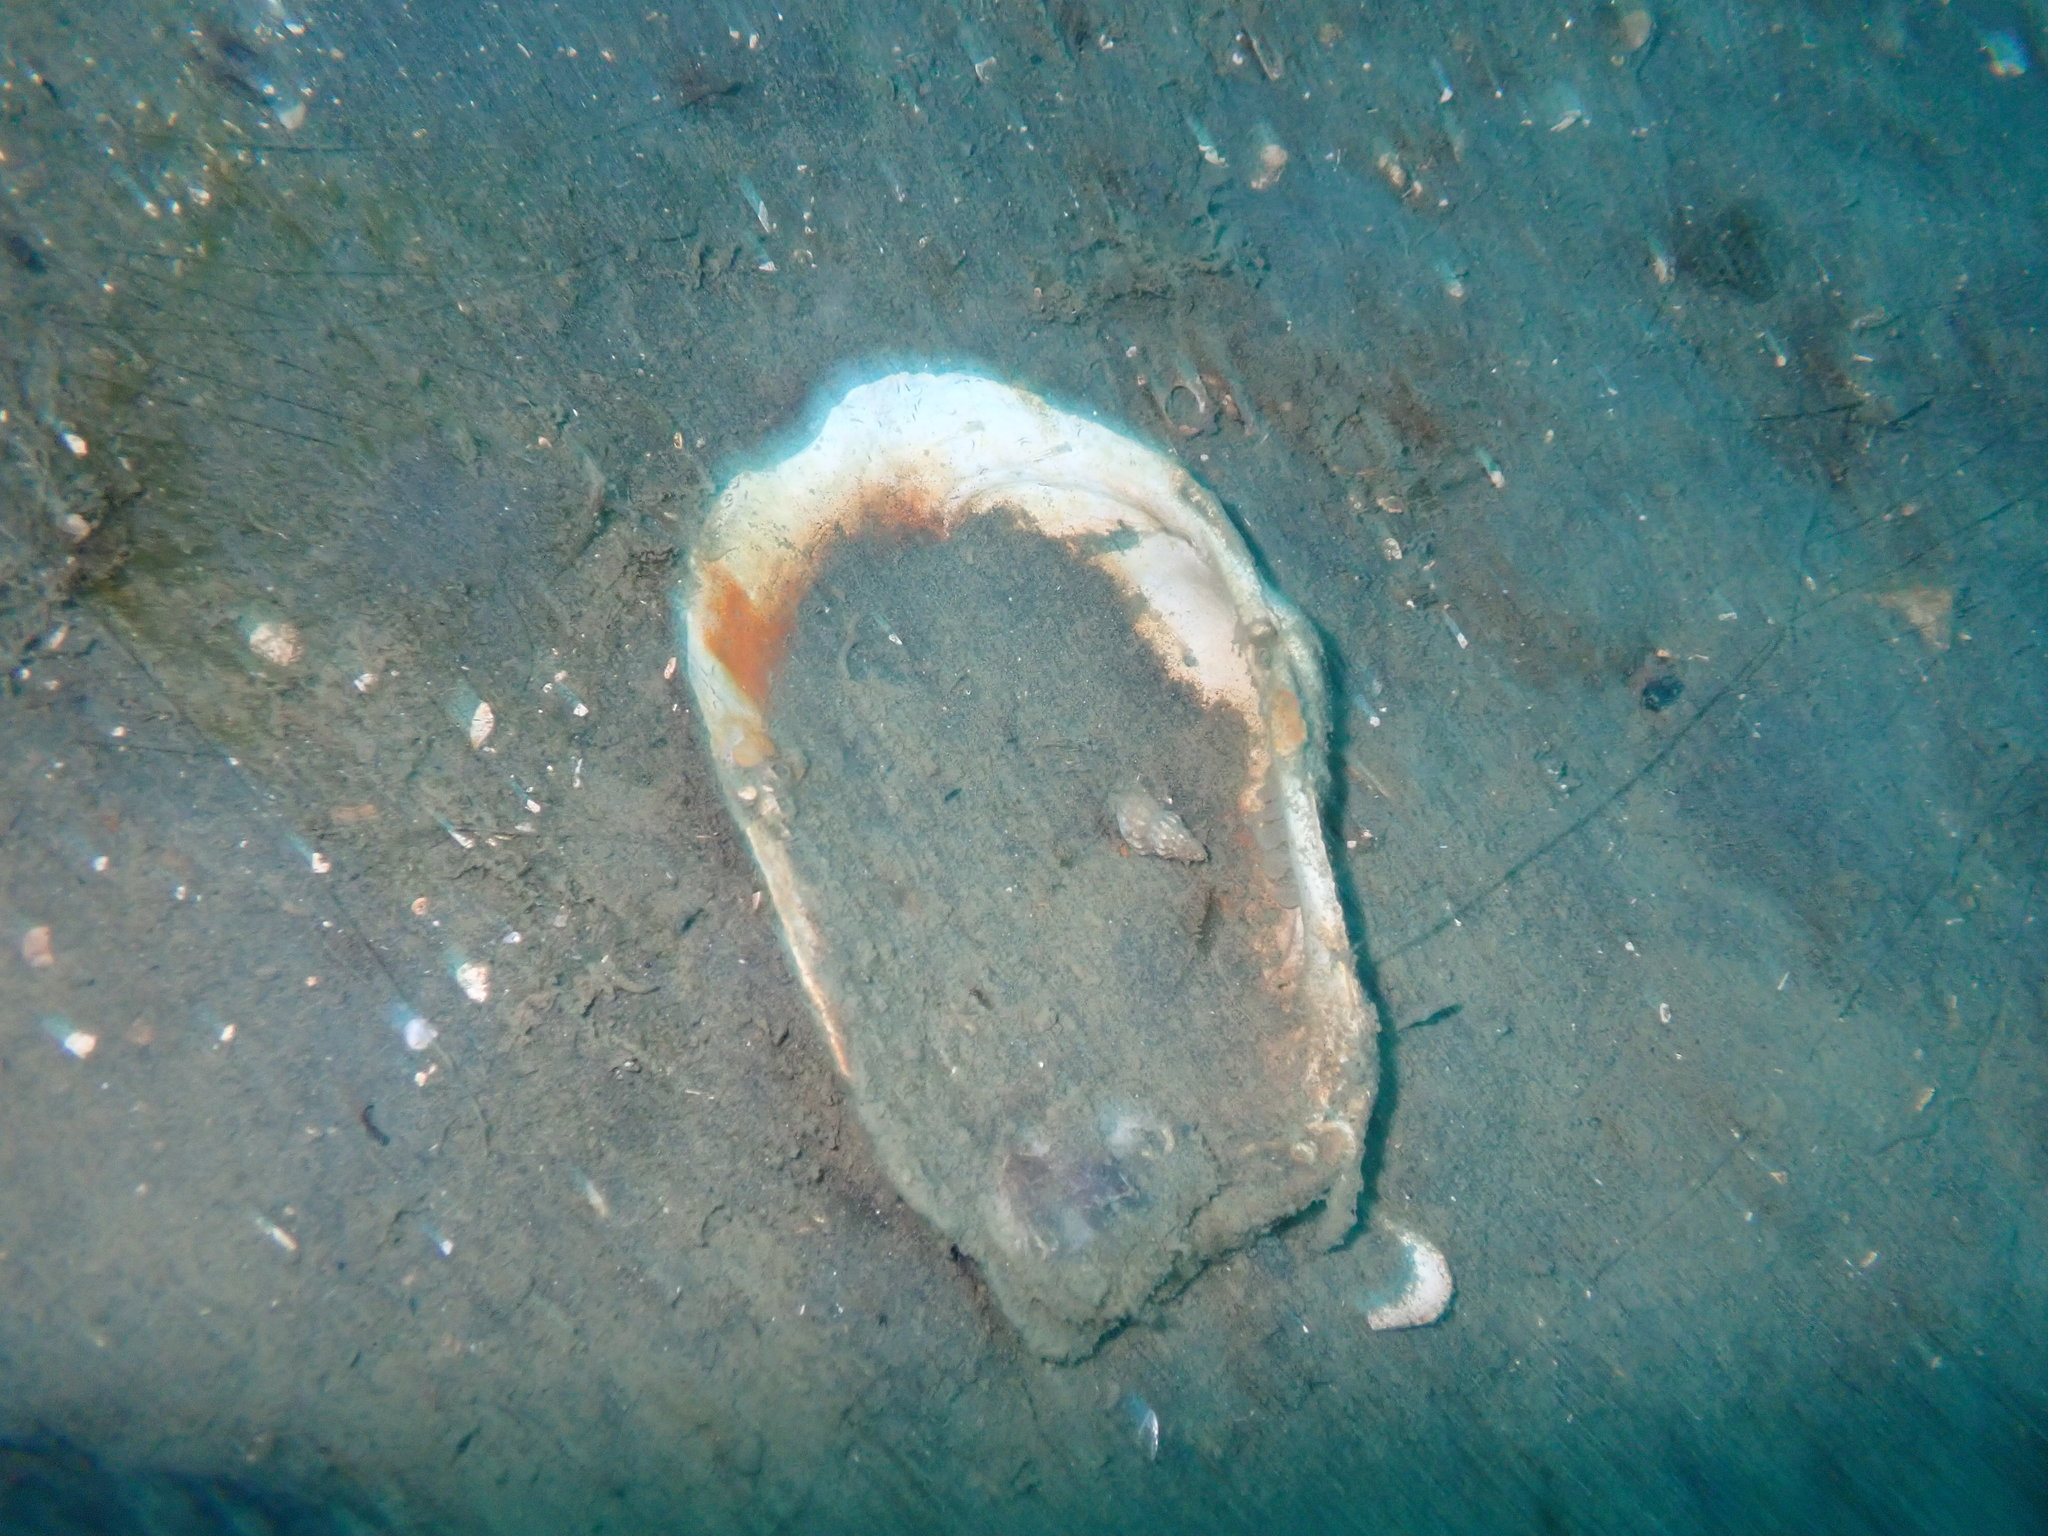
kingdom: Animalia
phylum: Mollusca
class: Bivalvia
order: Adapedonta
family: Hiatellidae
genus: Panopea
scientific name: Panopea zelandica
